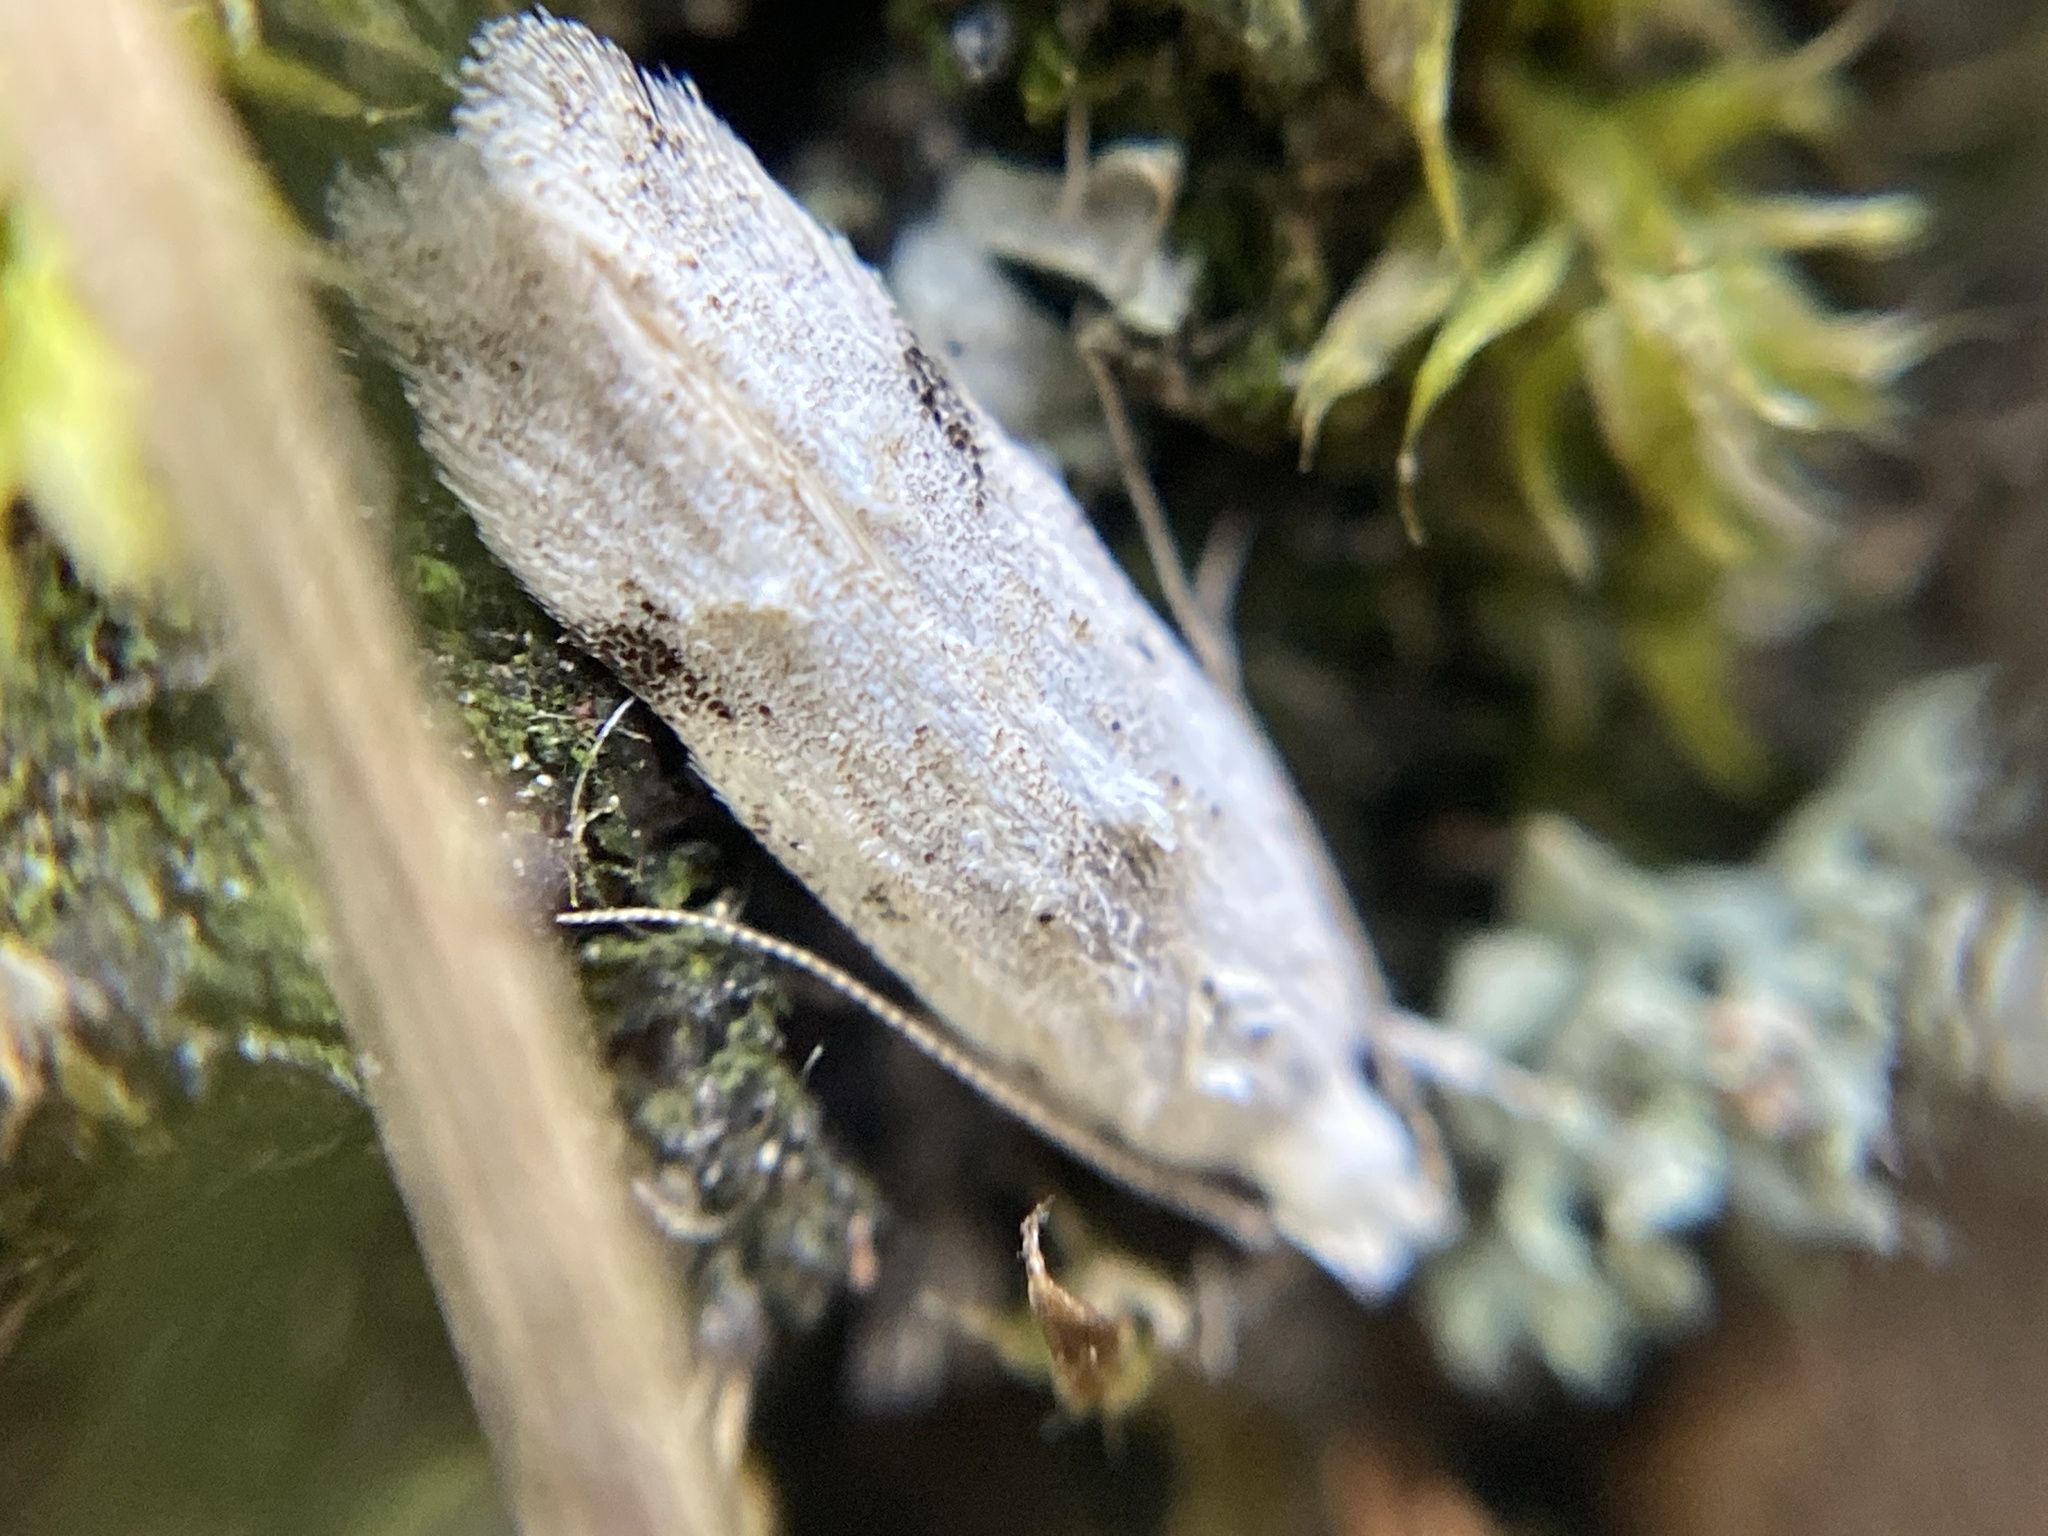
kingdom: Animalia
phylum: Arthropoda
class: Insecta
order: Lepidoptera
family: Gelechiidae
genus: Carpatolechia
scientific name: Carpatolechia alburnella
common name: Suffused groundling
